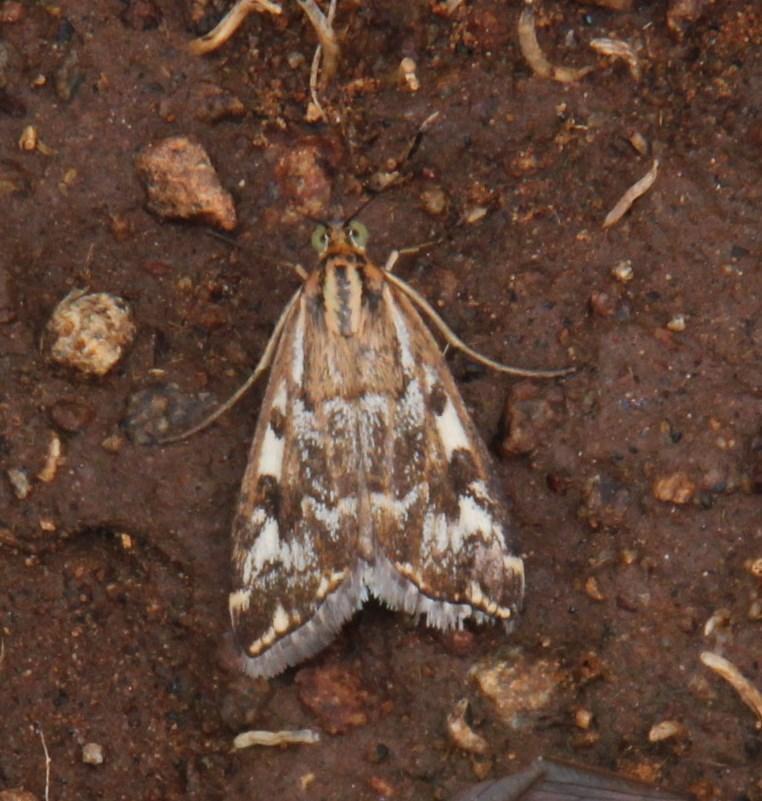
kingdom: Animalia
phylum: Arthropoda
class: Insecta
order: Lepidoptera
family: Crambidae
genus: Loxostege
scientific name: Loxostege frustalis
